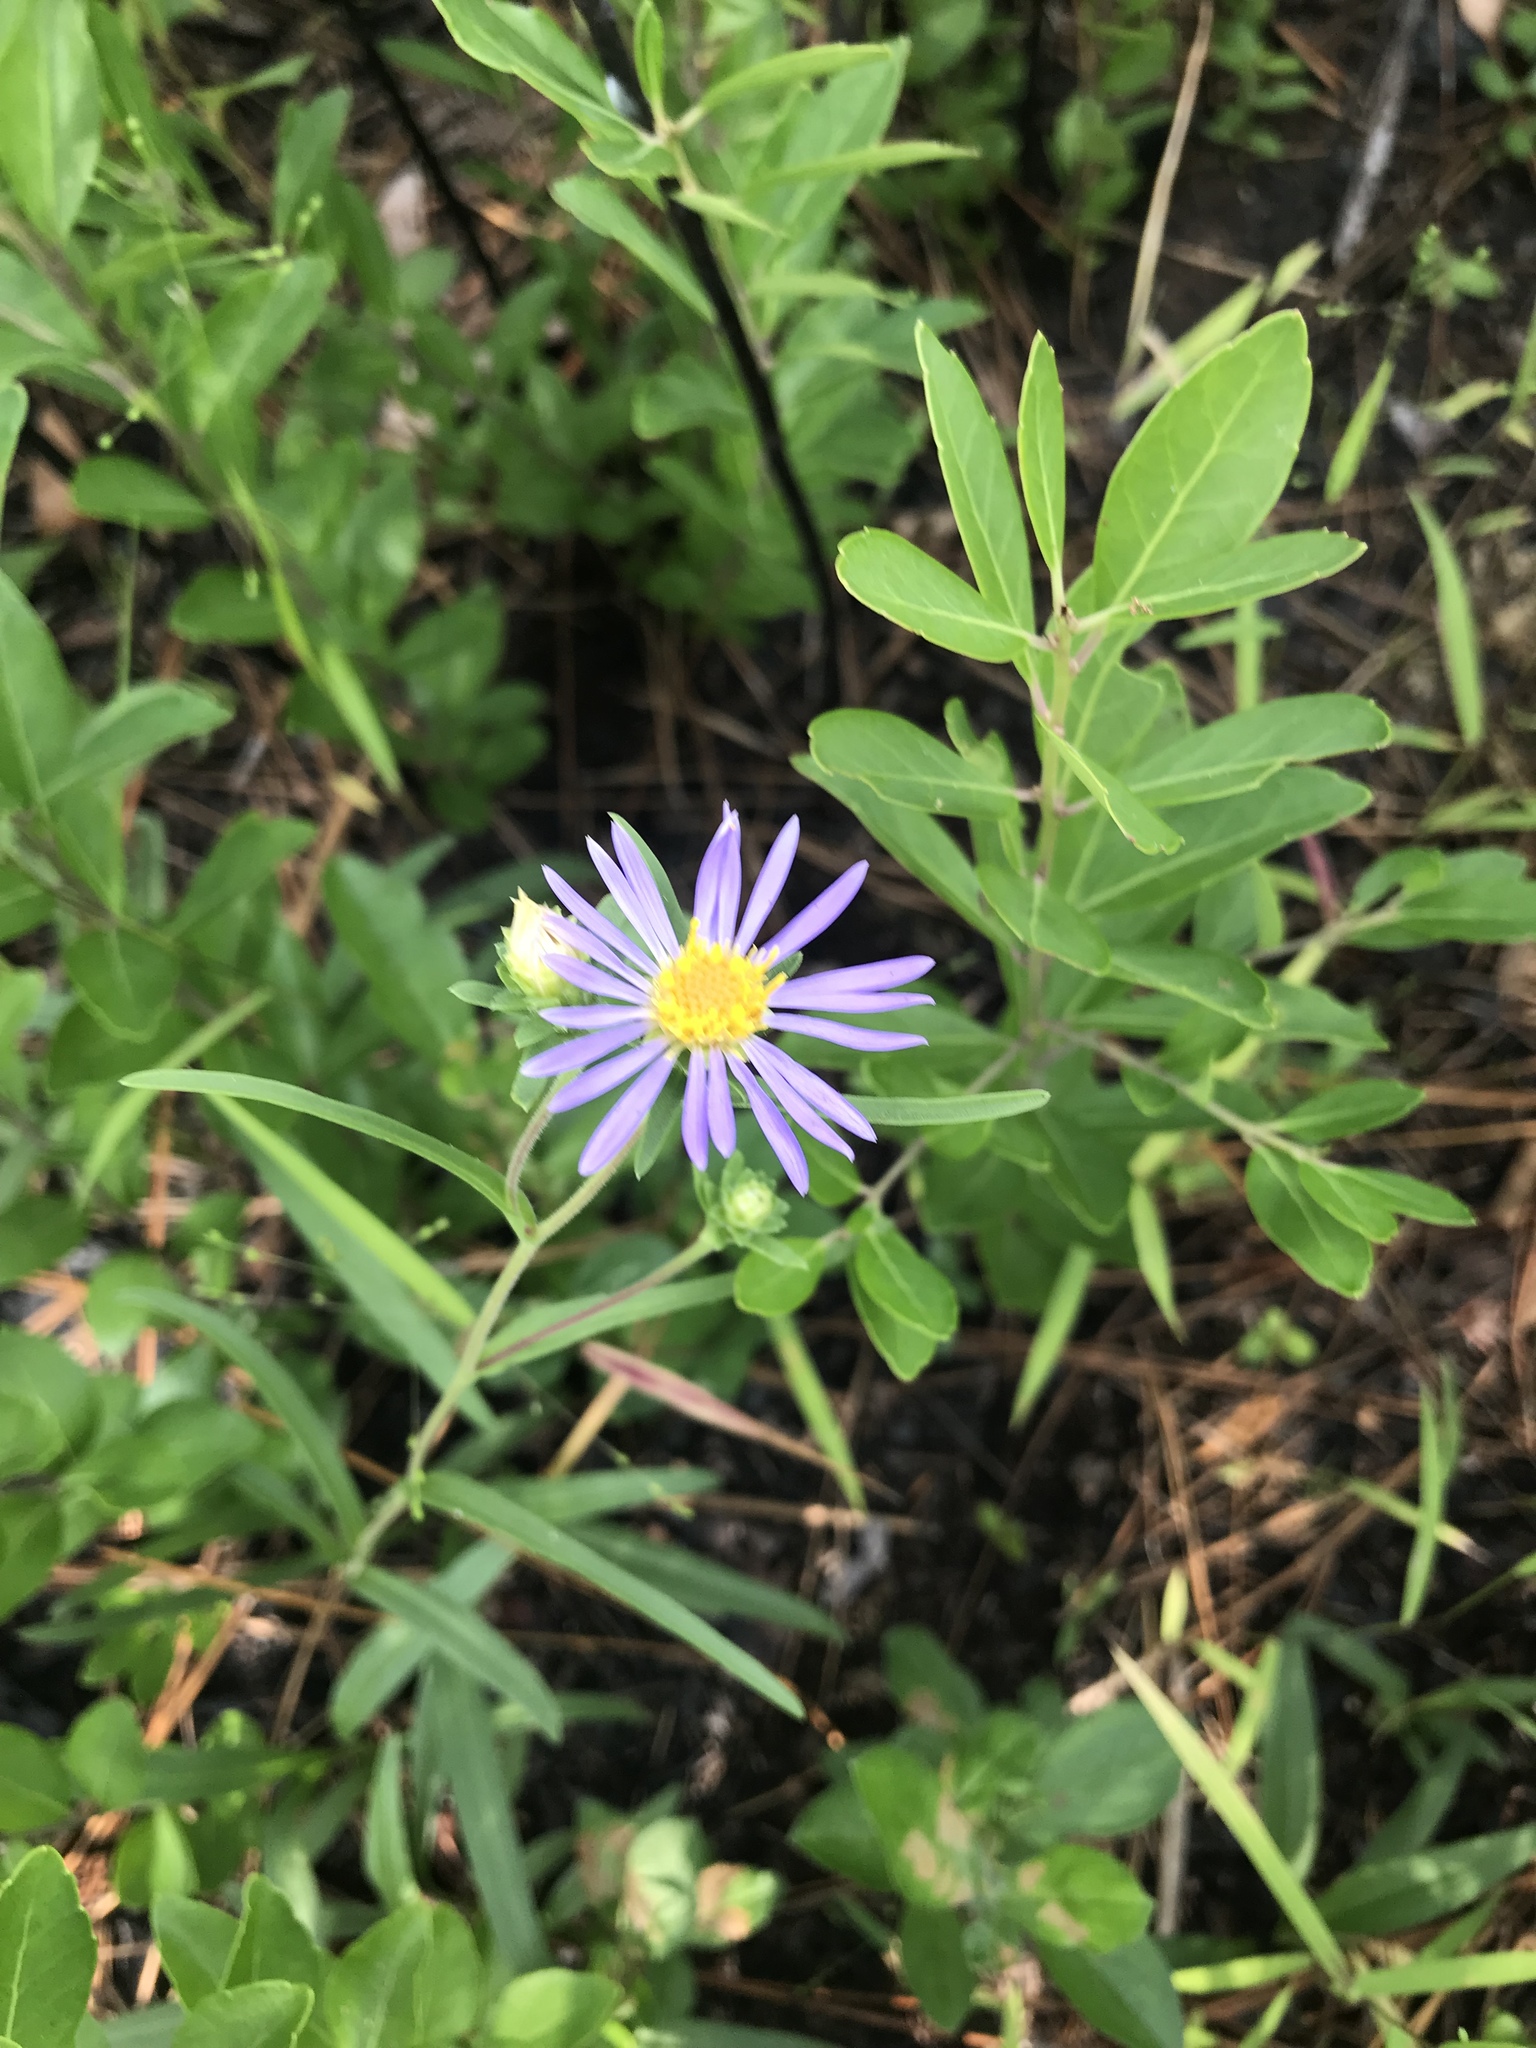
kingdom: Plantae
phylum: Tracheophyta
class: Magnoliopsida
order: Asterales
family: Asteraceae
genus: Eurybia
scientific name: Eurybia paludosa
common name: Southern swamp aster
